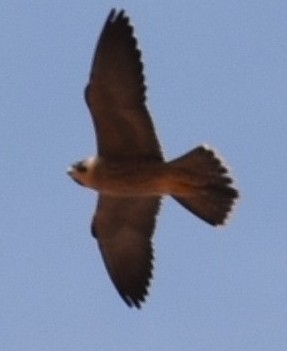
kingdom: Animalia
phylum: Chordata
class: Aves
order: Falconiformes
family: Falconidae
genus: Falco
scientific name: Falco peregrinus
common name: Peregrine falcon
